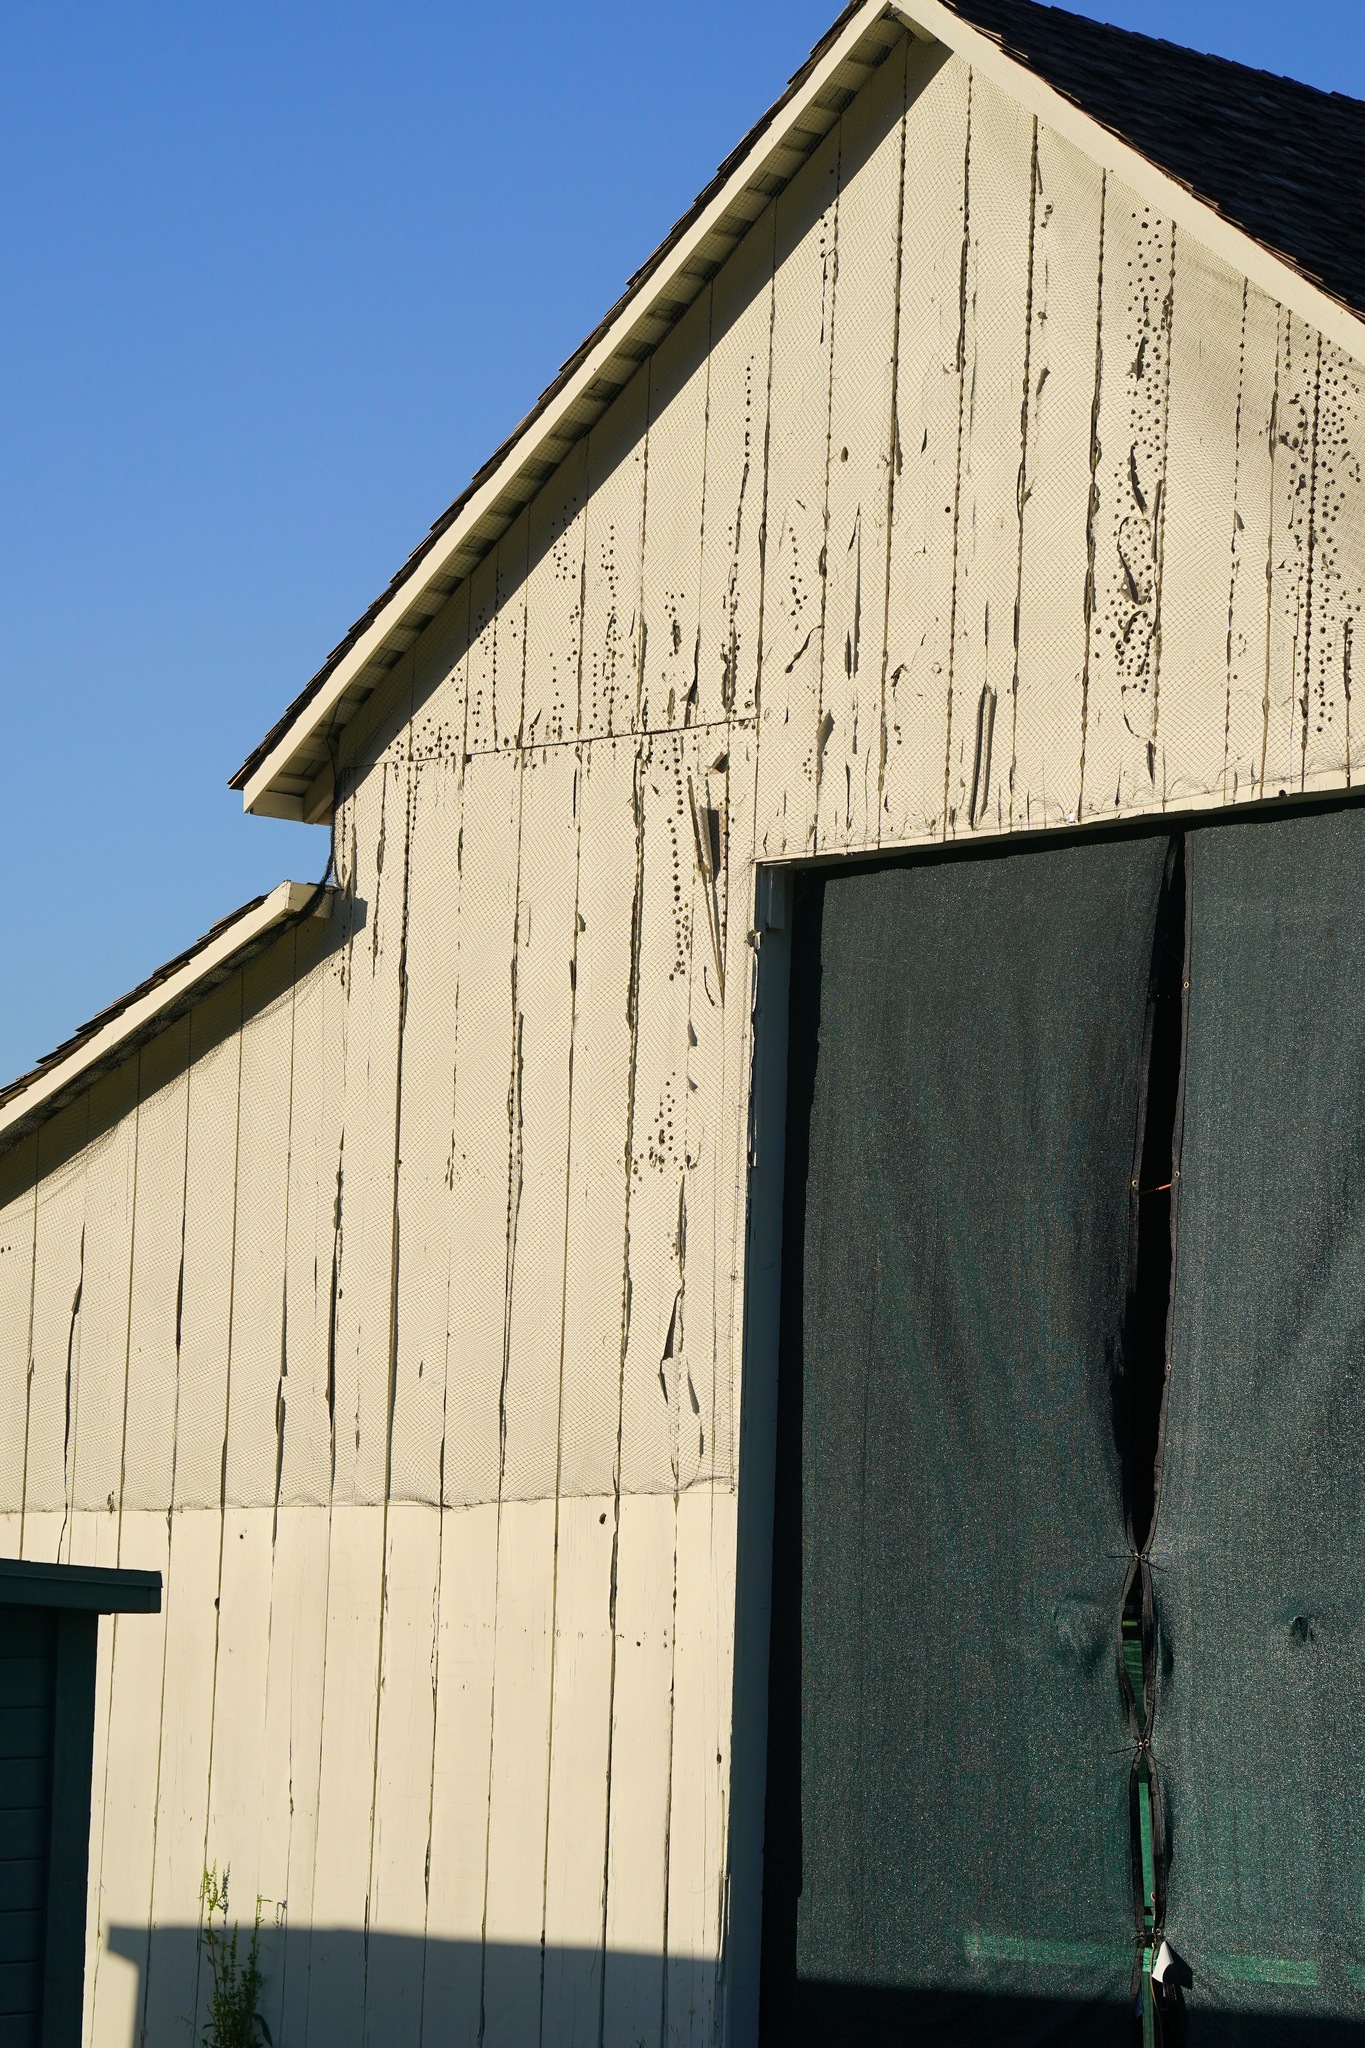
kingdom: Animalia
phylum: Chordata
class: Aves
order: Piciformes
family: Picidae
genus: Melanerpes
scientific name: Melanerpes formicivorus
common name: Acorn woodpecker
